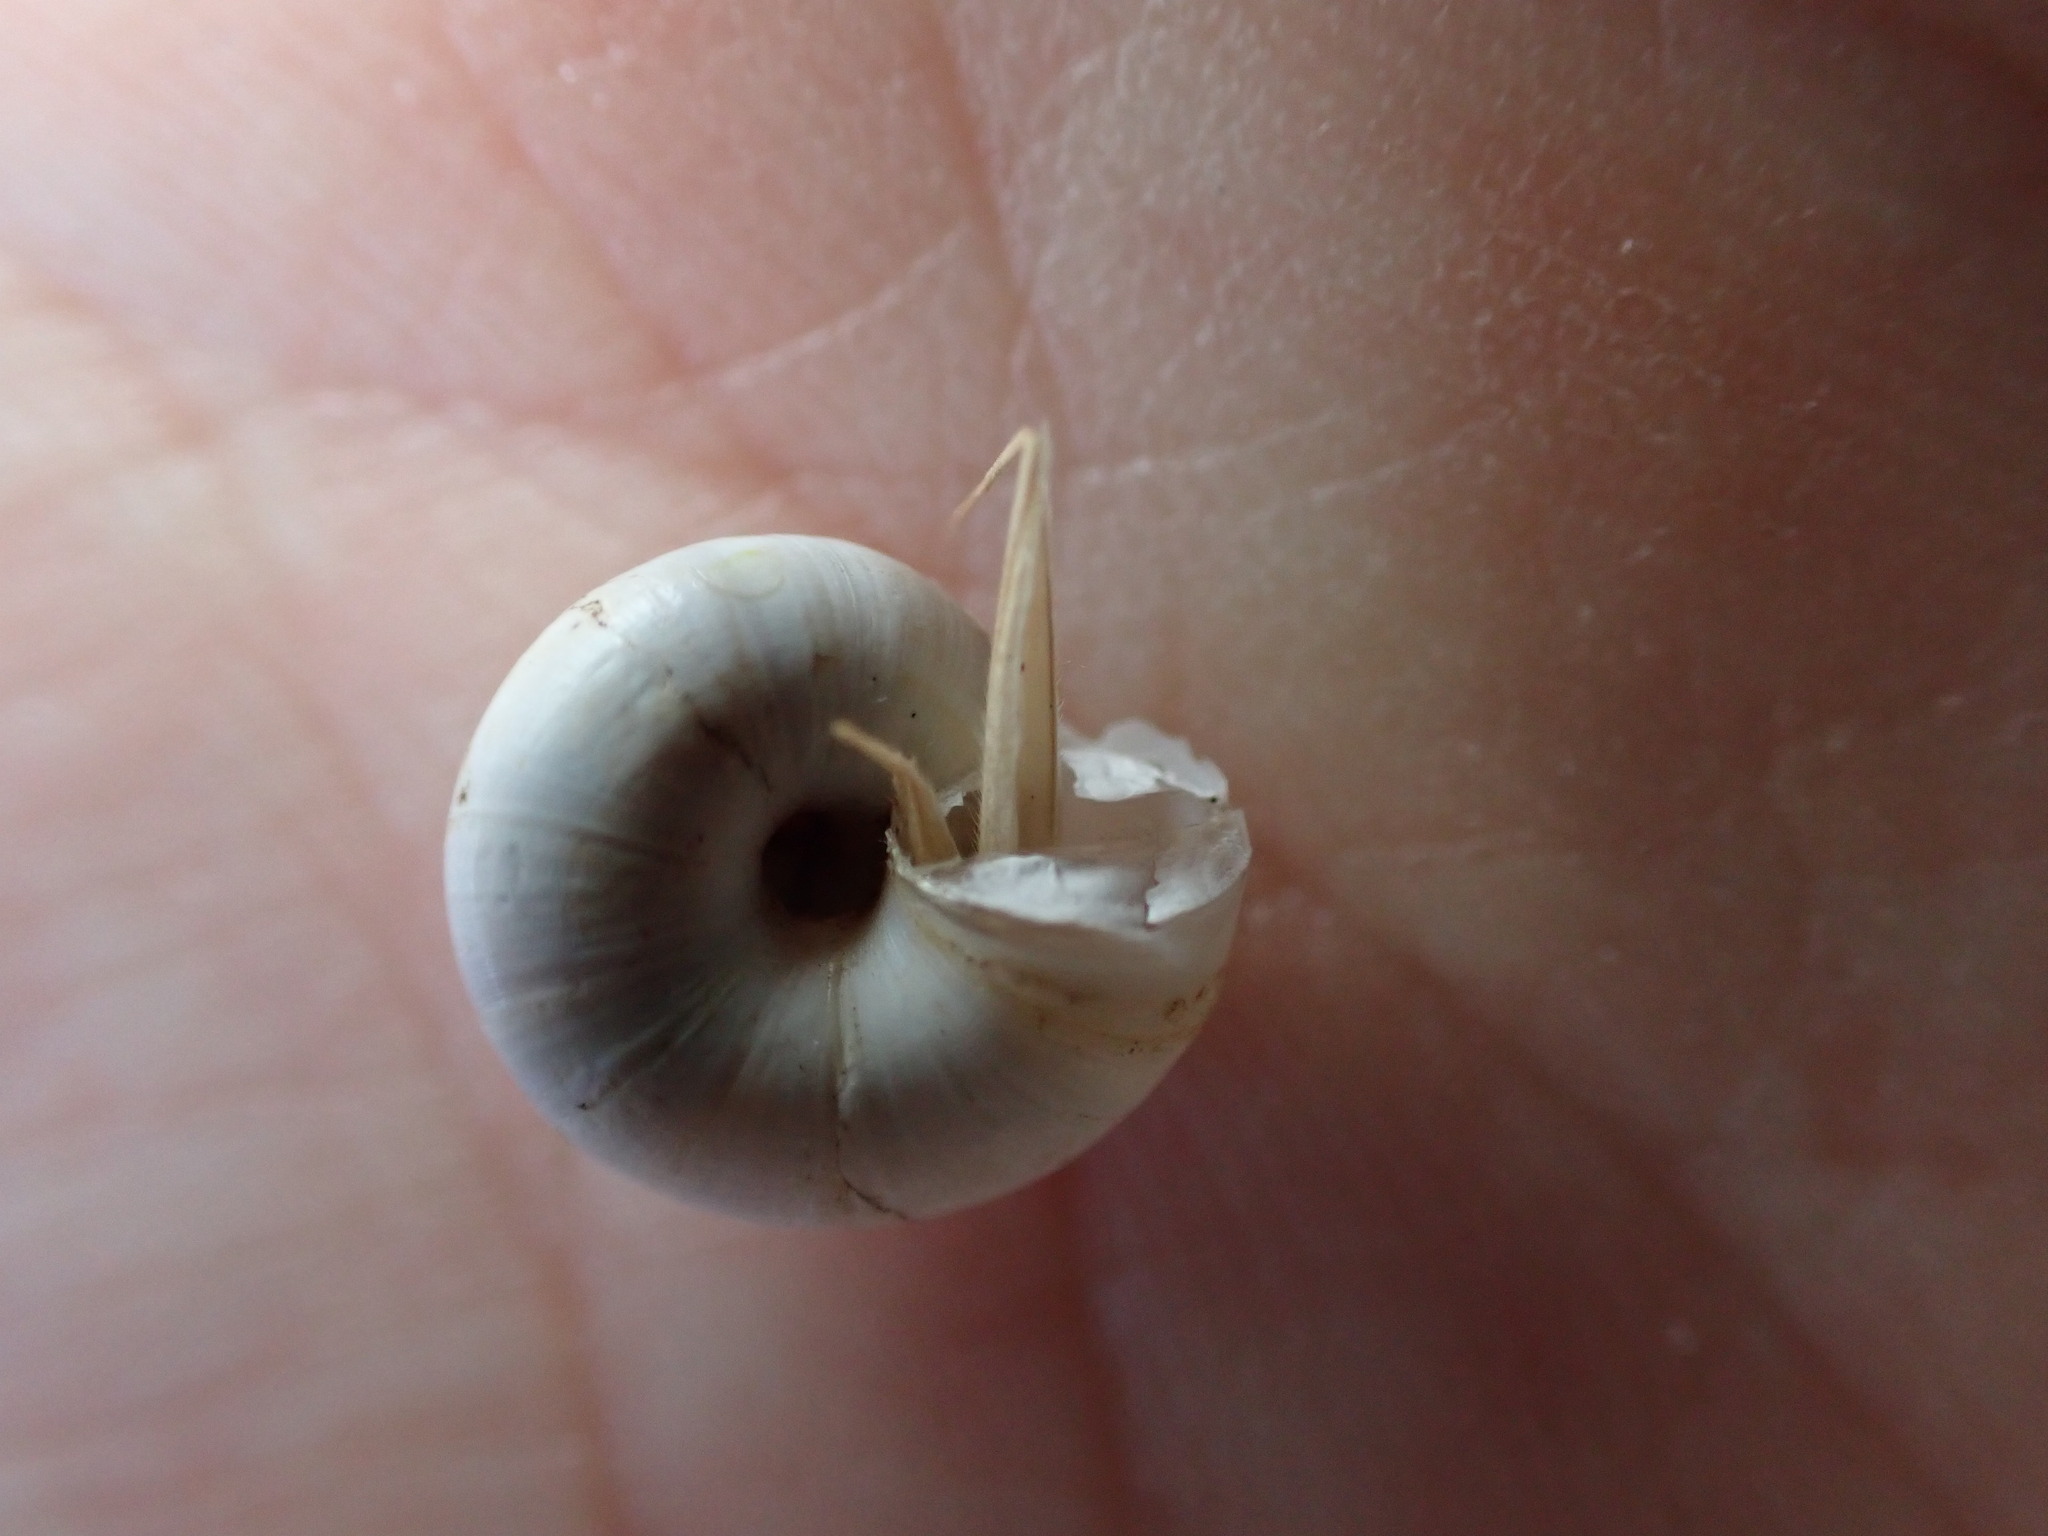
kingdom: Animalia
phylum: Mollusca
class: Gastropoda
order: Stylommatophora
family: Geomitridae
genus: Xeropicta
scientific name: Xeropicta derbentina
